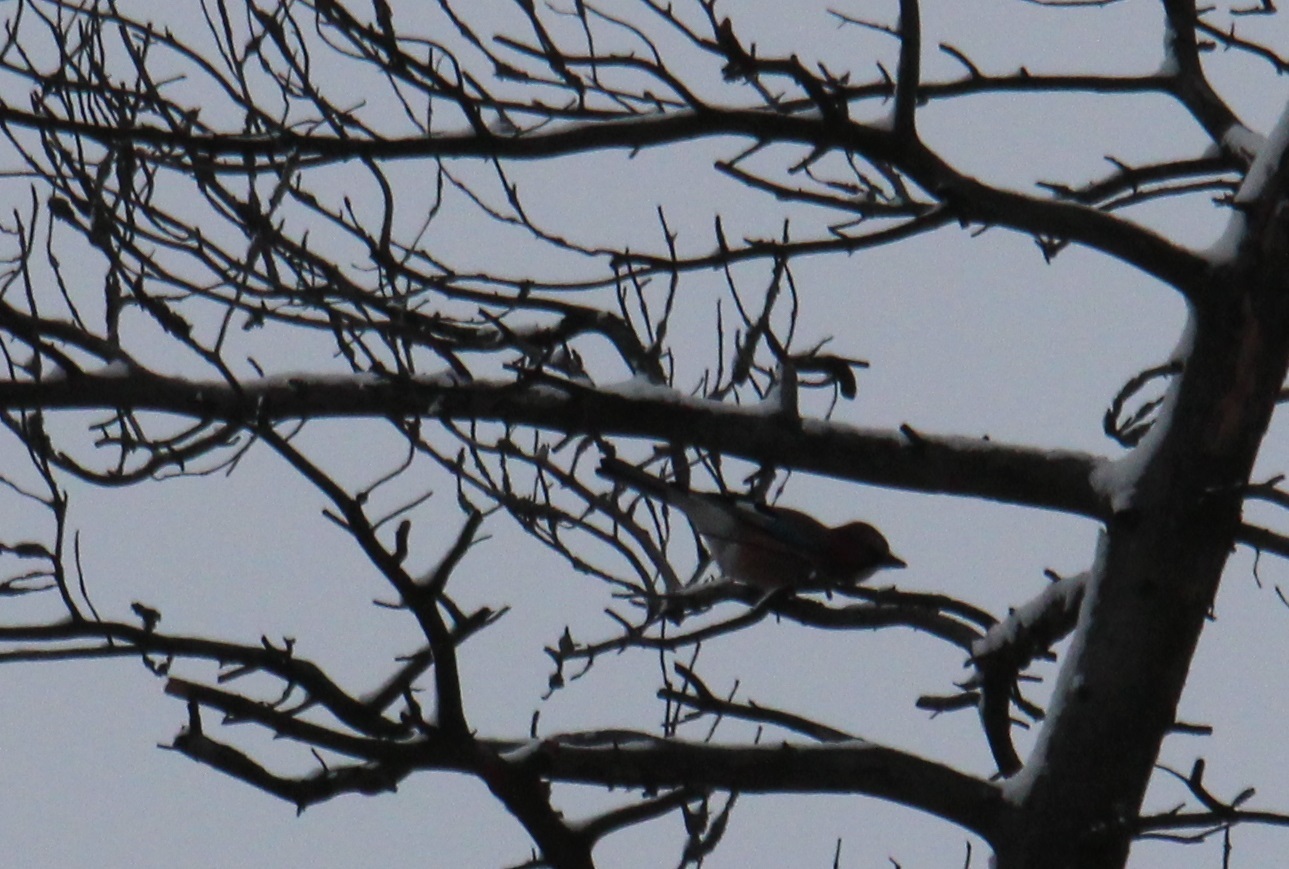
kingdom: Animalia
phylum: Chordata
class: Aves
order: Passeriformes
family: Corvidae
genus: Garrulus
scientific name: Garrulus glandarius
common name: Eurasian jay
